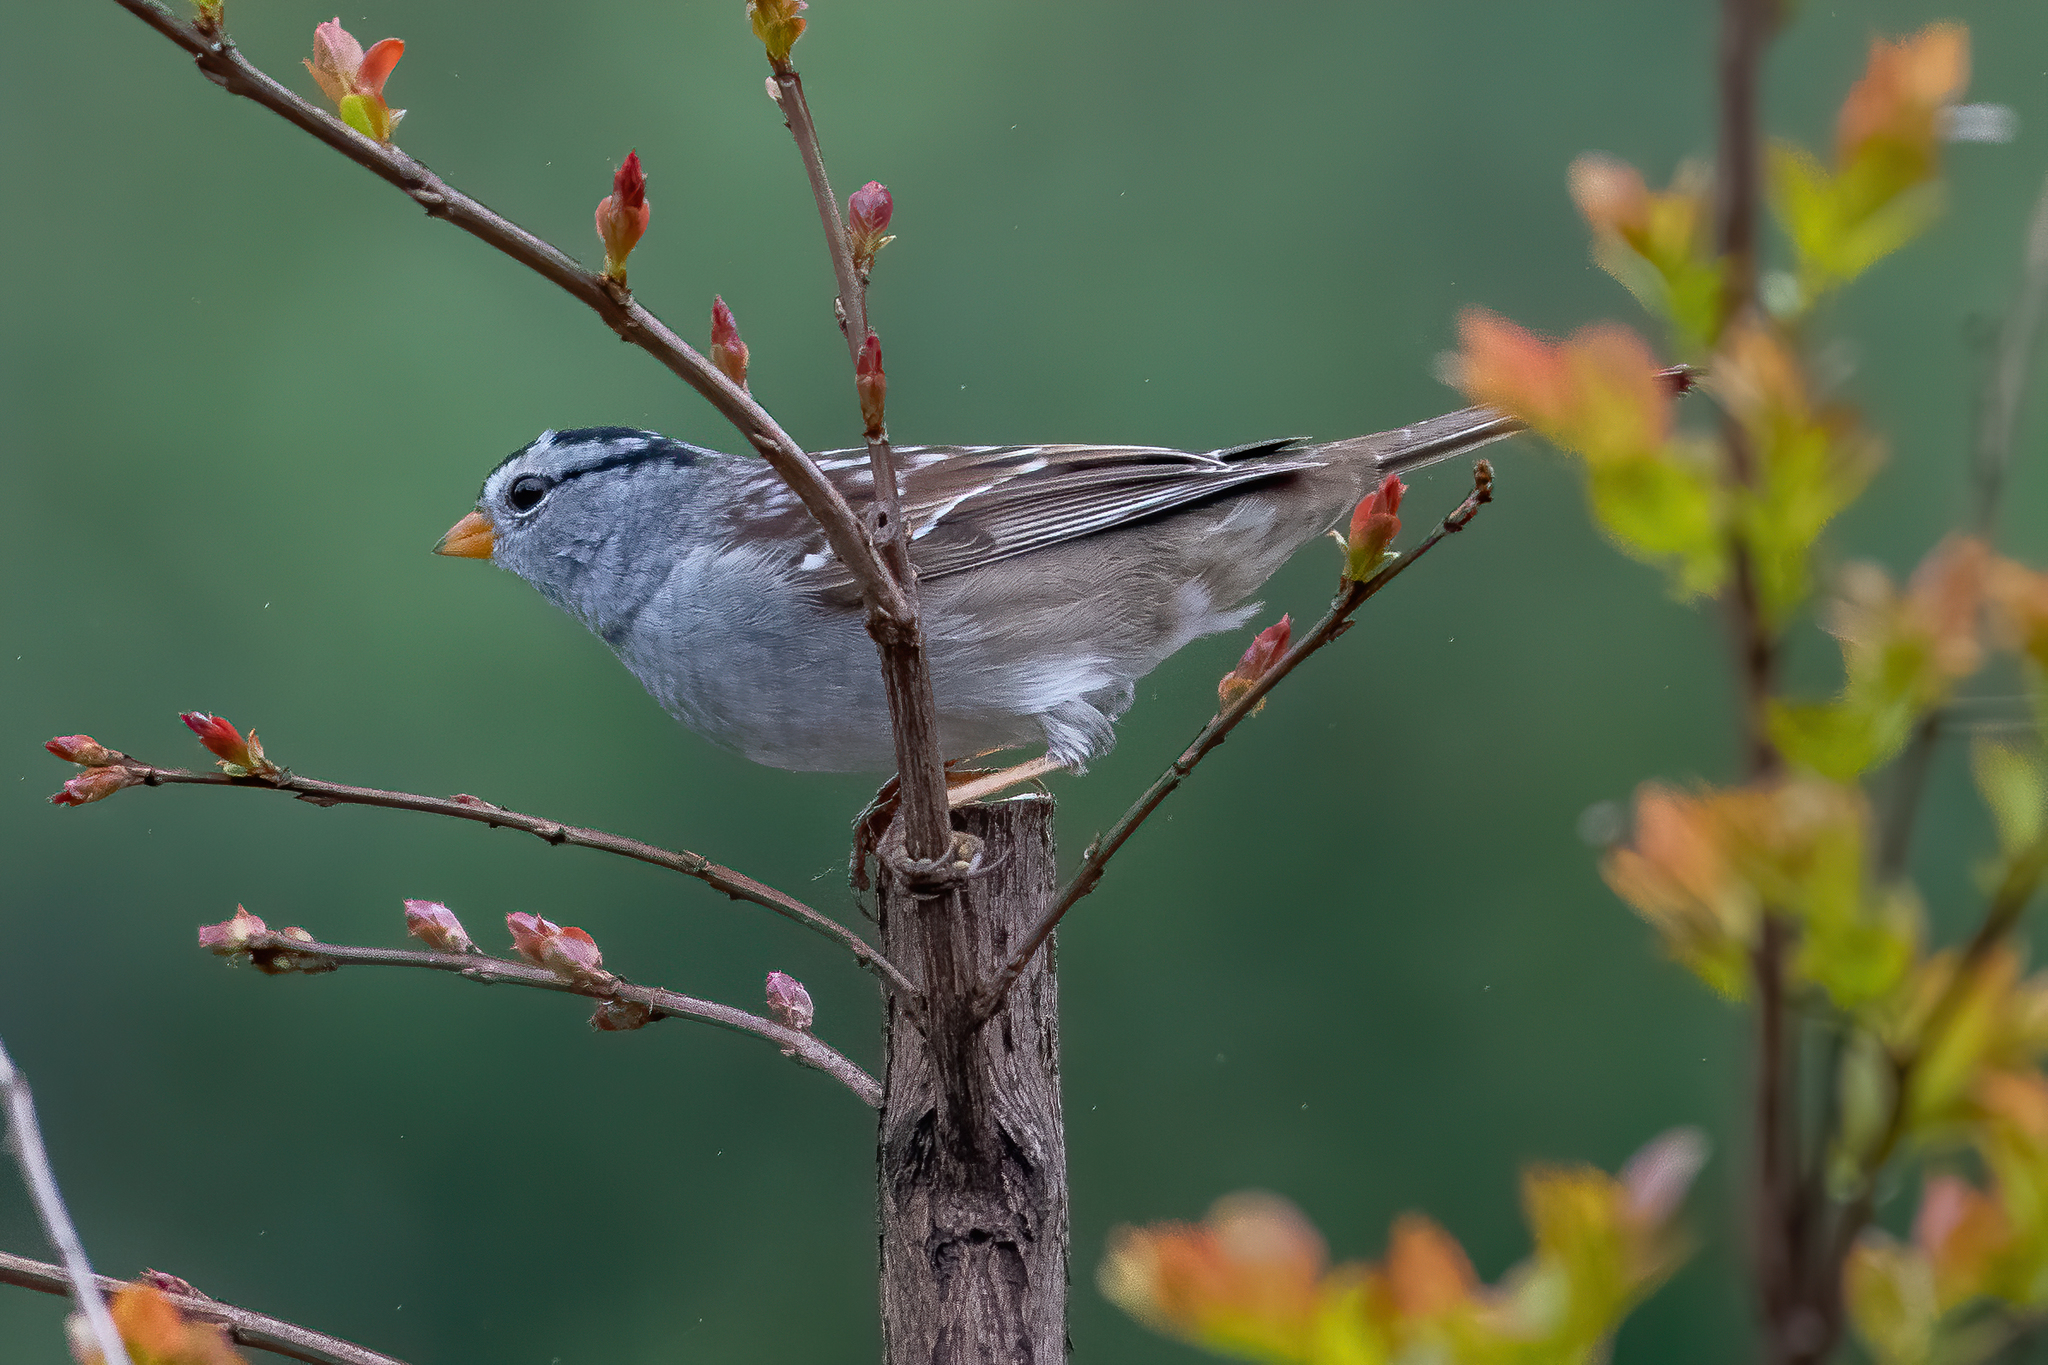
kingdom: Animalia
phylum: Chordata
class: Aves
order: Passeriformes
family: Passerellidae
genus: Zonotrichia
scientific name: Zonotrichia leucophrys
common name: White-crowned sparrow
